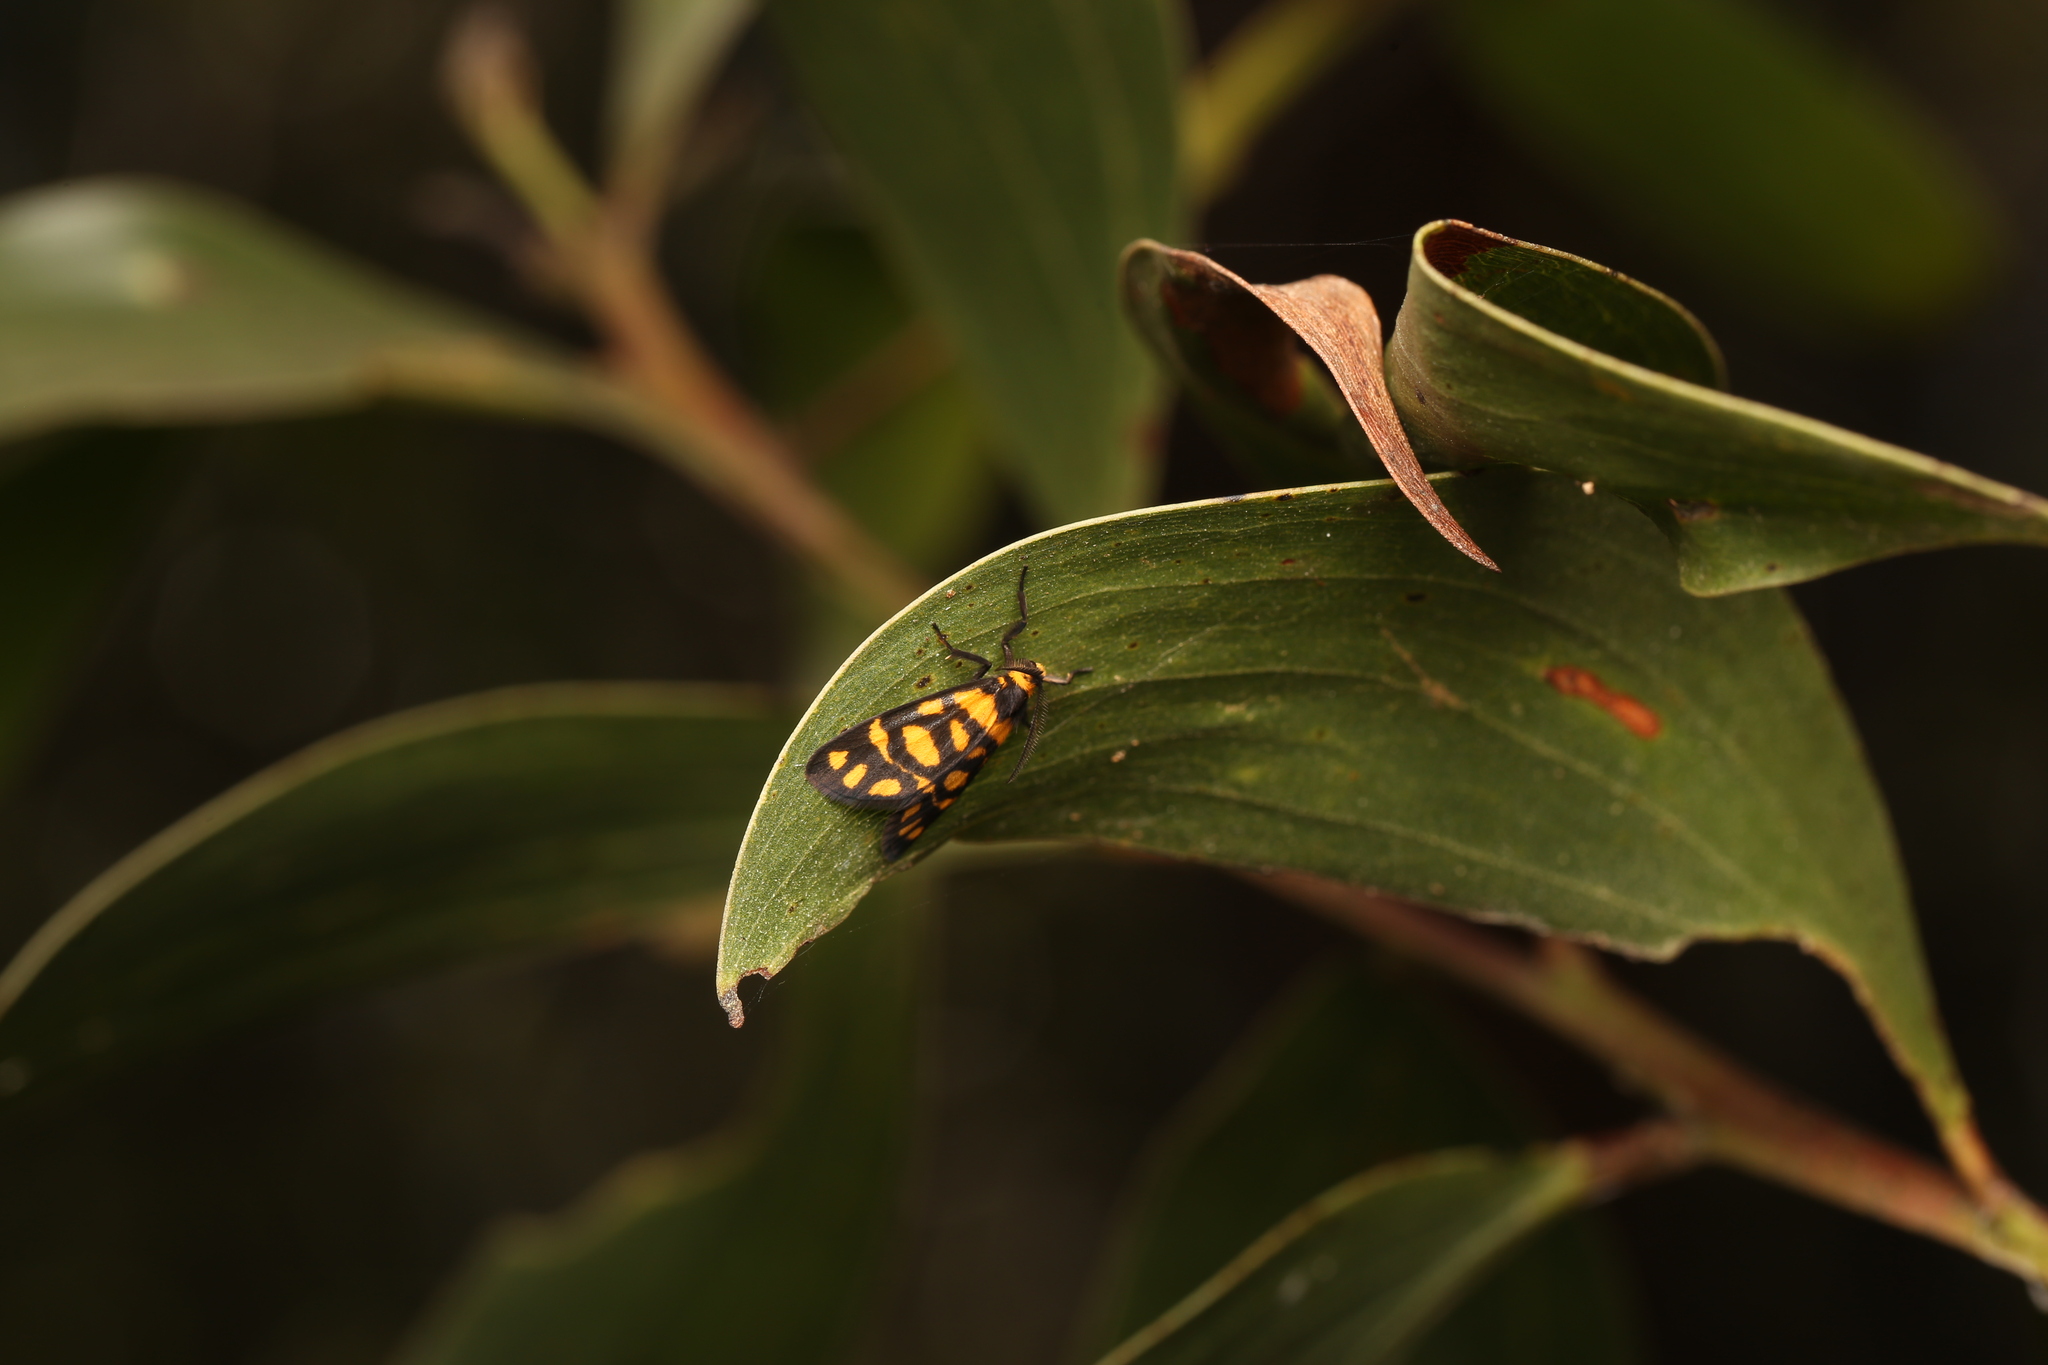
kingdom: Animalia
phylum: Arthropoda
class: Insecta
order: Lepidoptera
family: Erebidae
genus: Asura
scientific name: Asura lydia
